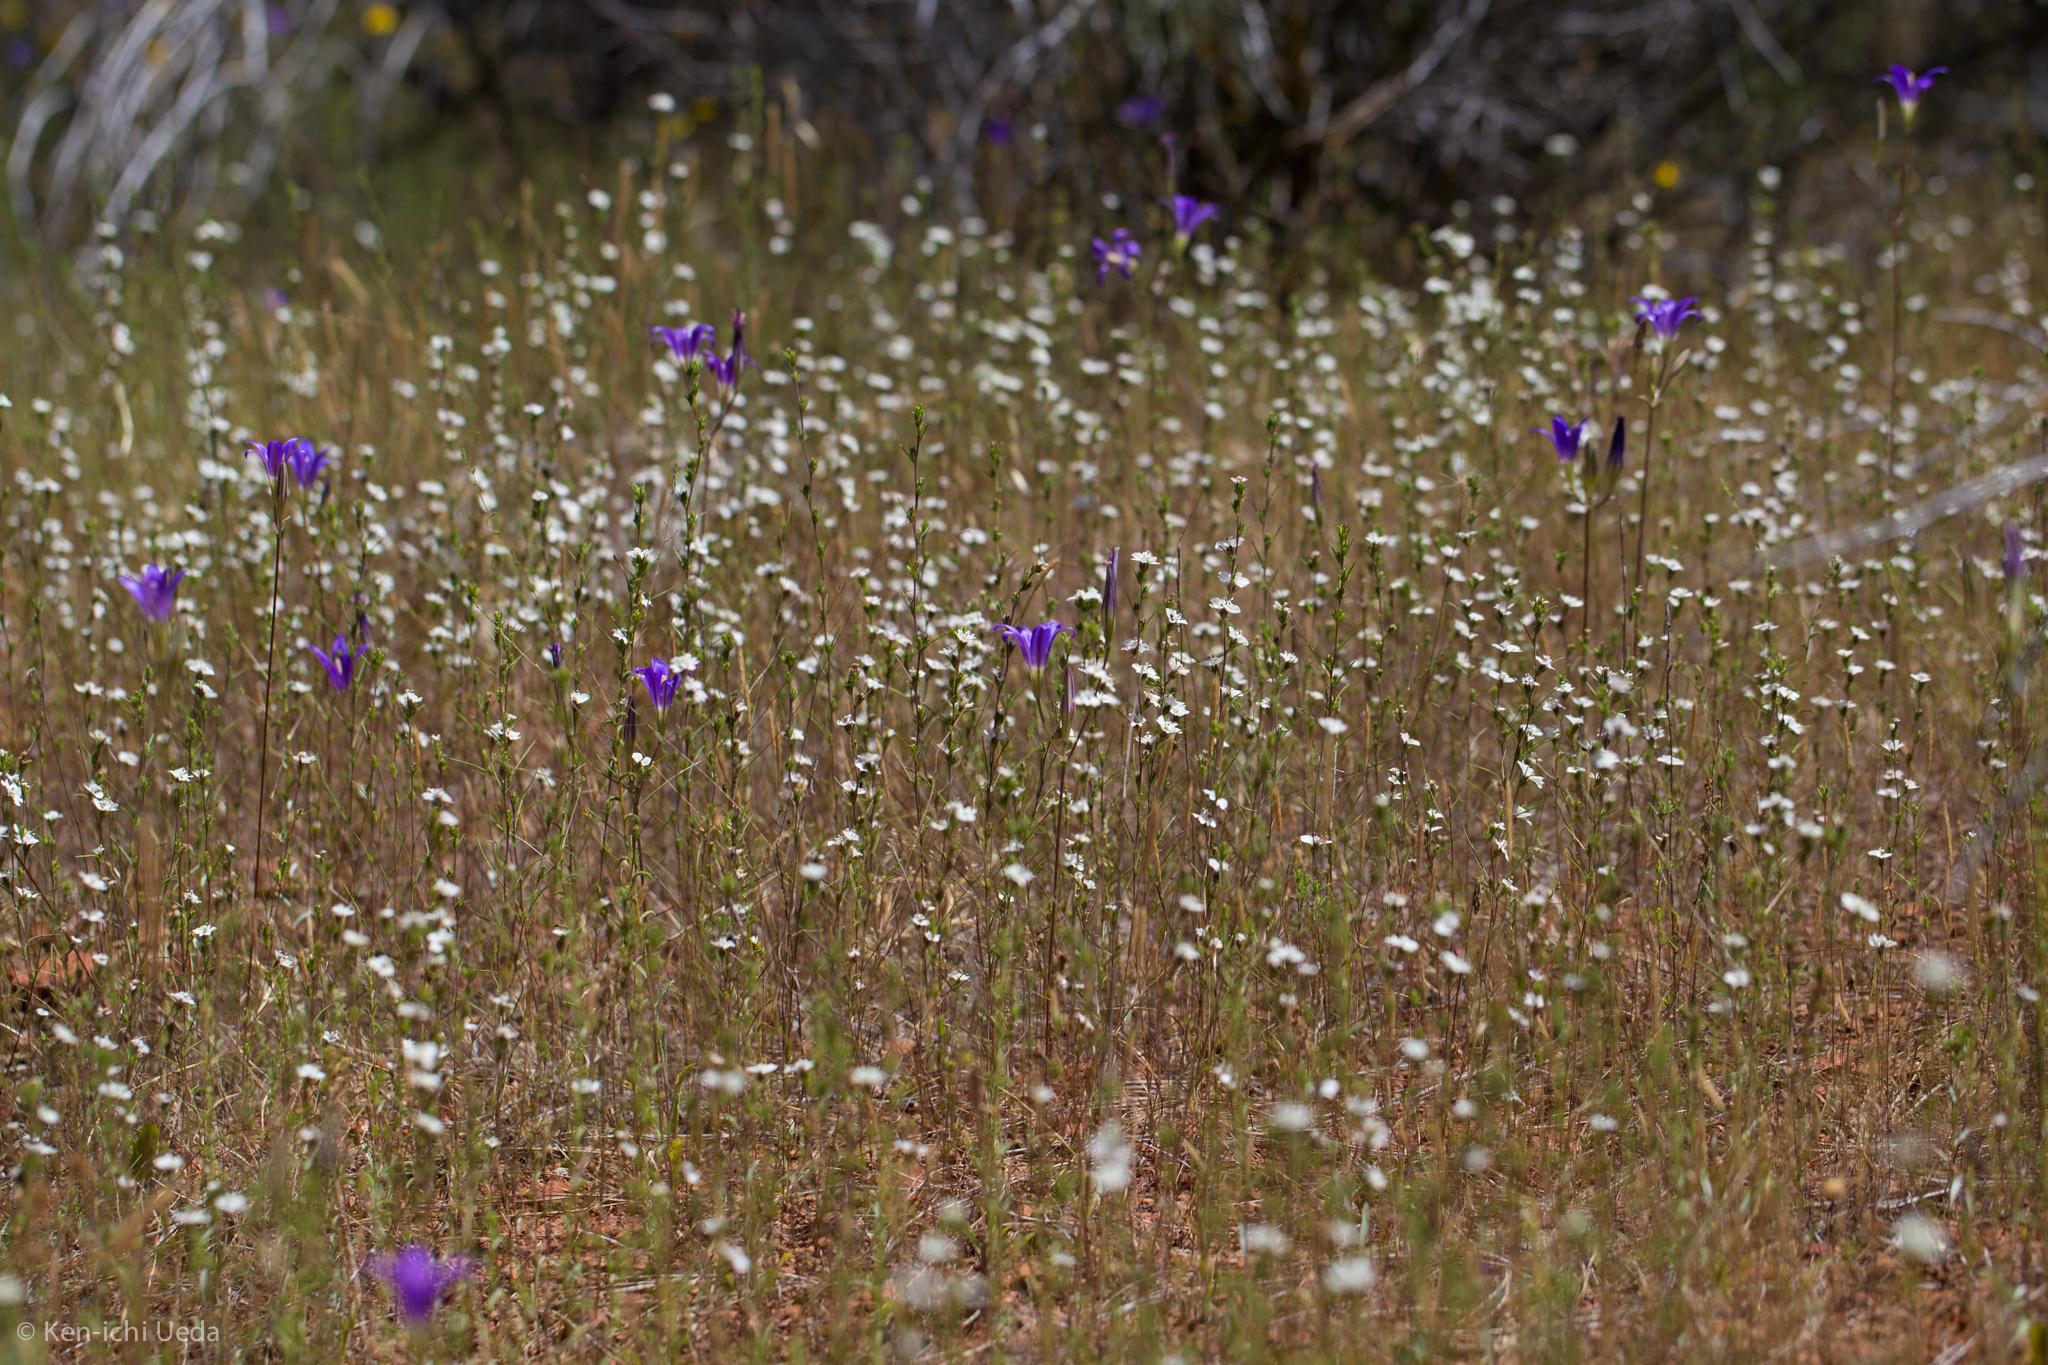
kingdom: Plantae
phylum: Tracheophyta
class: Magnoliopsida
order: Asterales
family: Asteraceae
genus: Calycadenia
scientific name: Calycadenia multiglandulosa
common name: Sticky calycadenia
